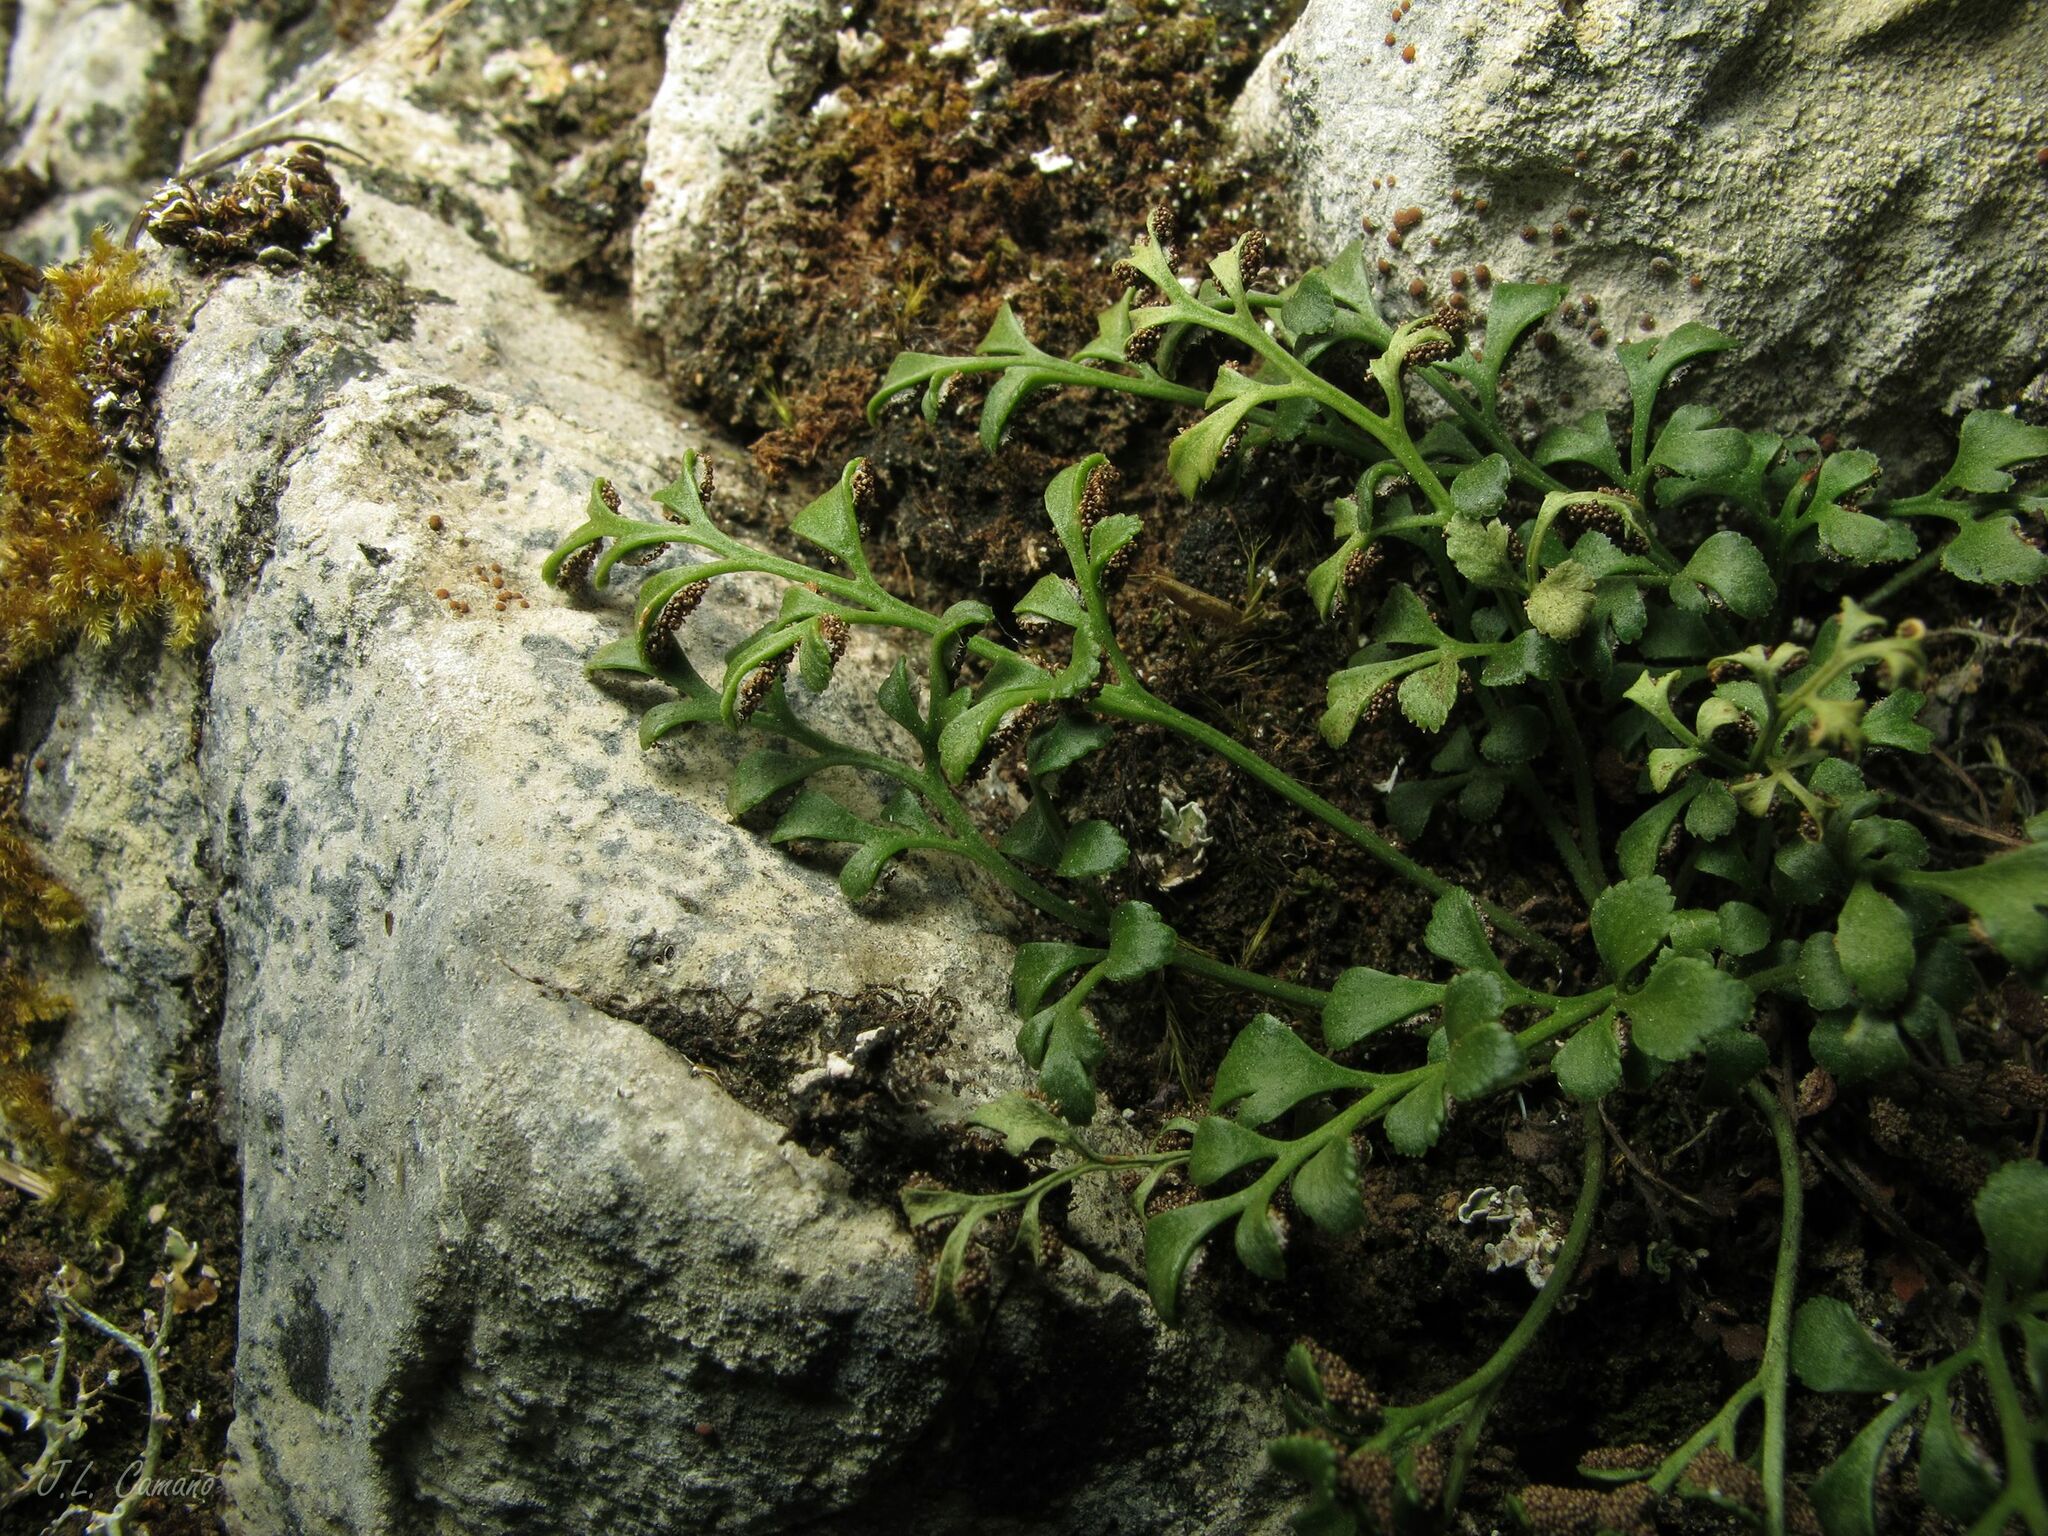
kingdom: Plantae
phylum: Tracheophyta
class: Polypodiopsida
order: Polypodiales
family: Aspleniaceae
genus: Asplenium
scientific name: Asplenium ruta-muraria
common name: Wall-rue
